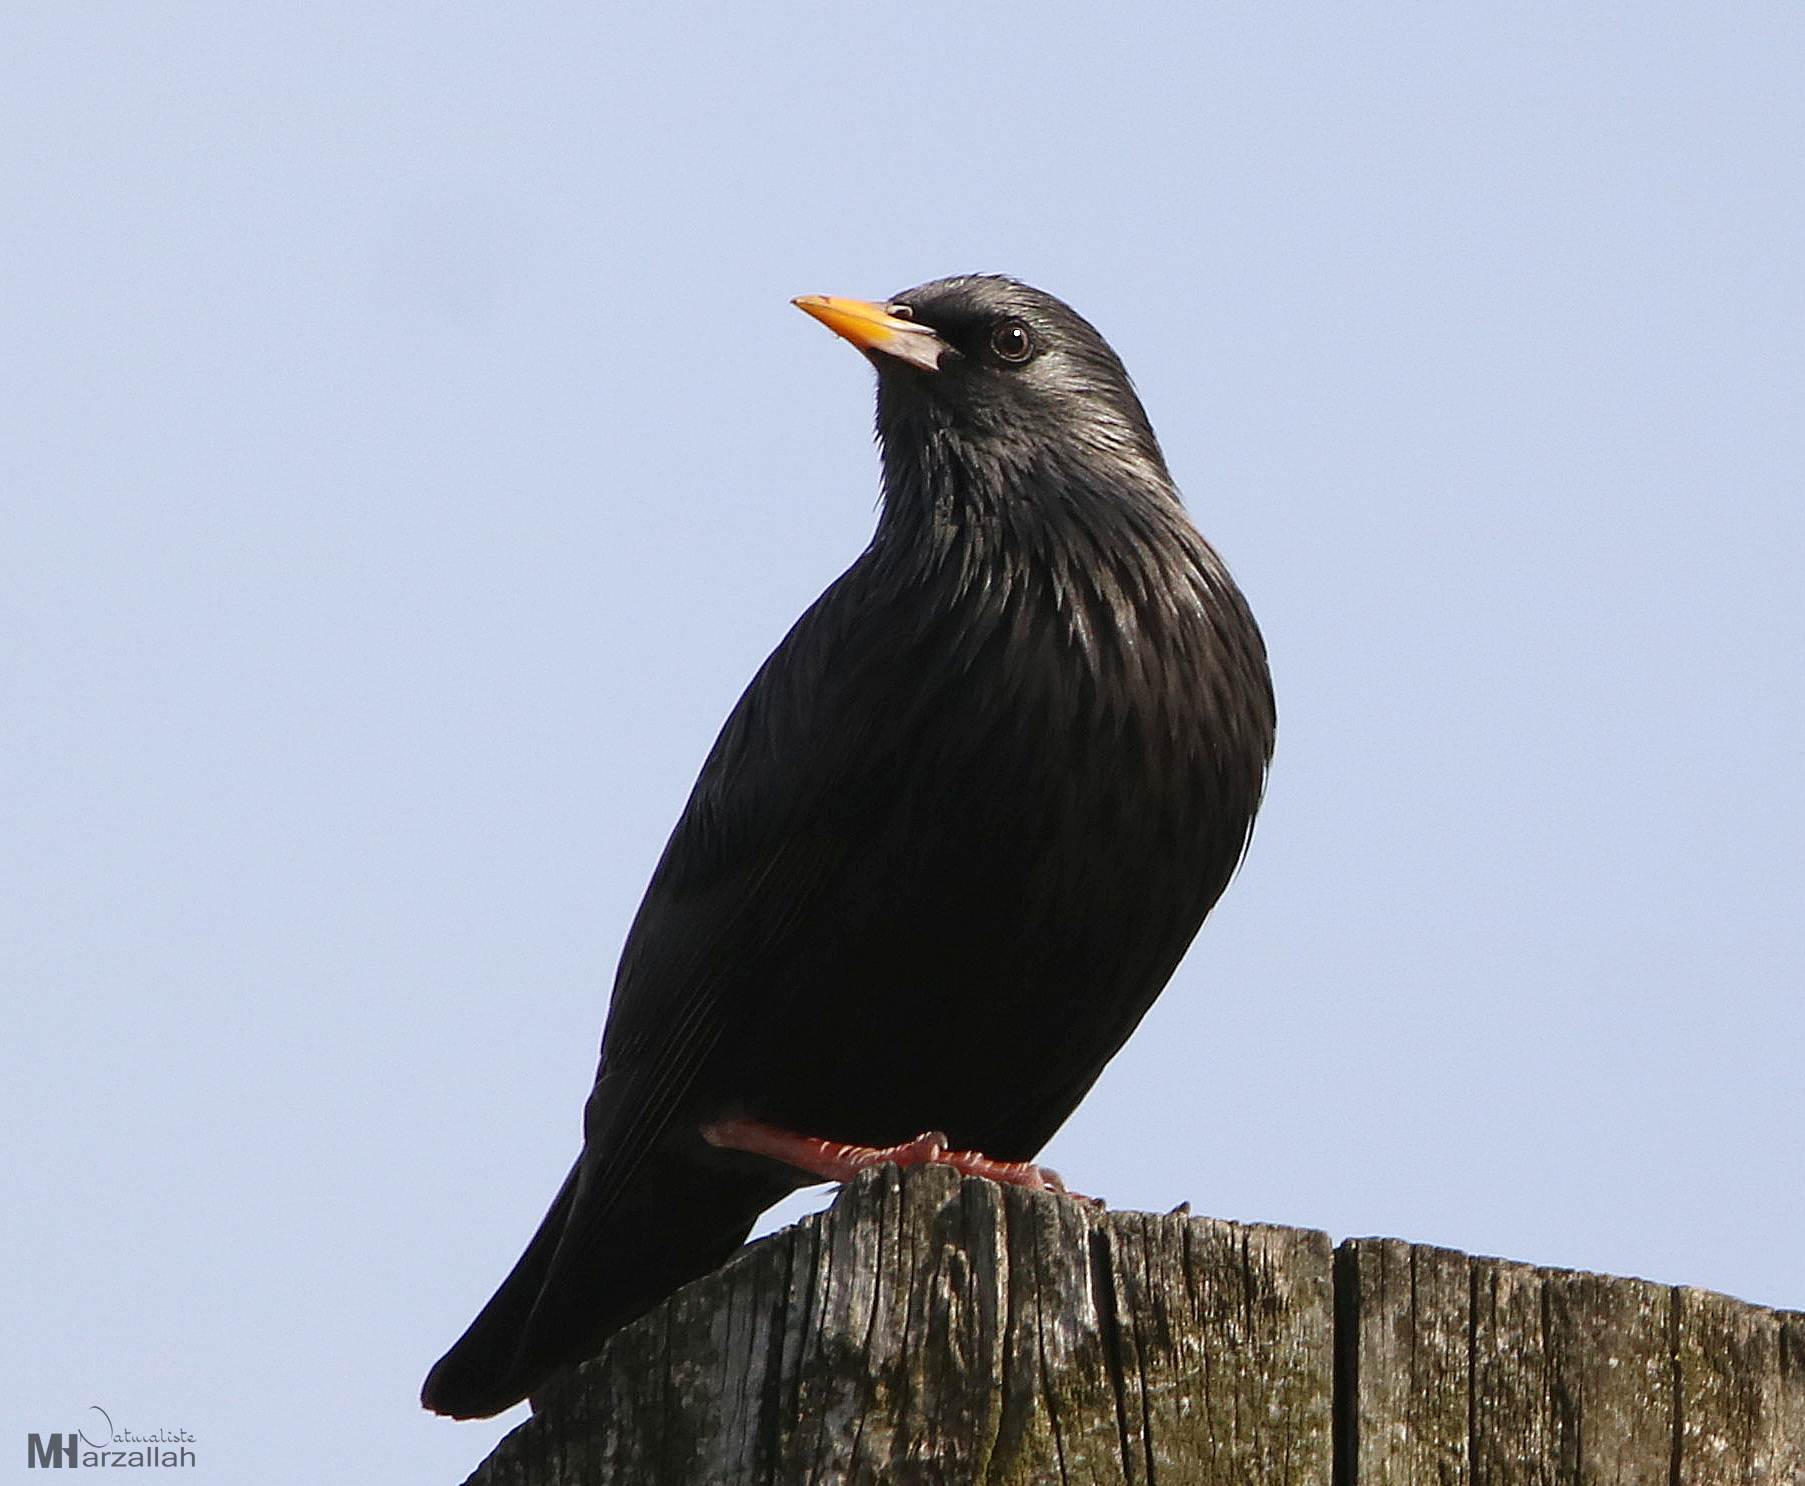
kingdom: Animalia
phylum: Chordata
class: Aves
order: Passeriformes
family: Sturnidae
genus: Sturnus
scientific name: Sturnus unicolor
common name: Spotless starling
